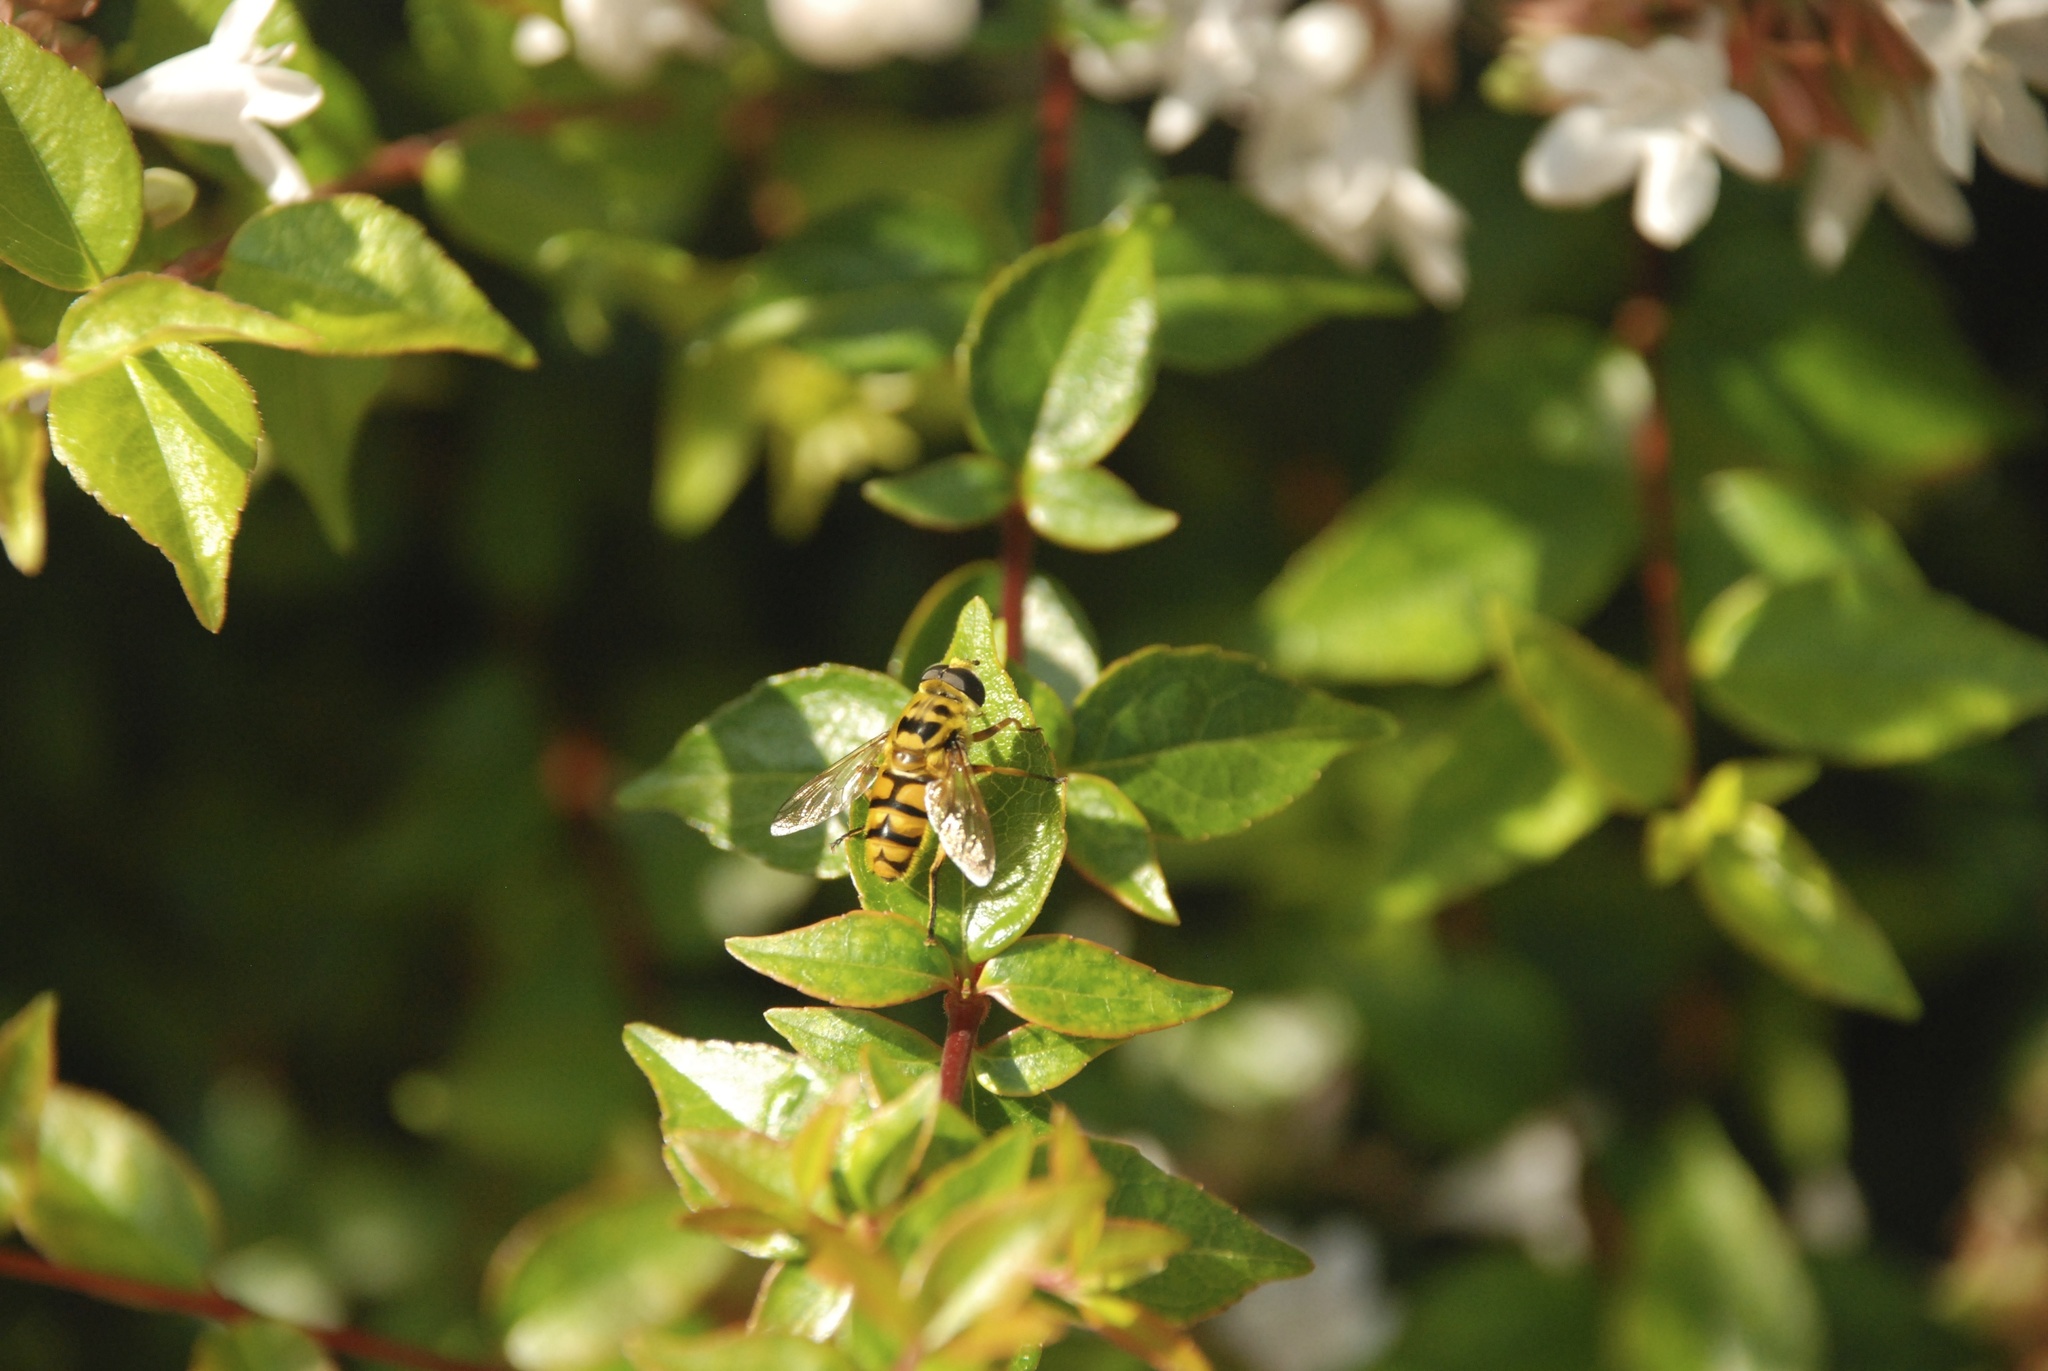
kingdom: Animalia
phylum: Arthropoda
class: Insecta
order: Diptera
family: Syrphidae
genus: Myathropa
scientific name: Myathropa florea
